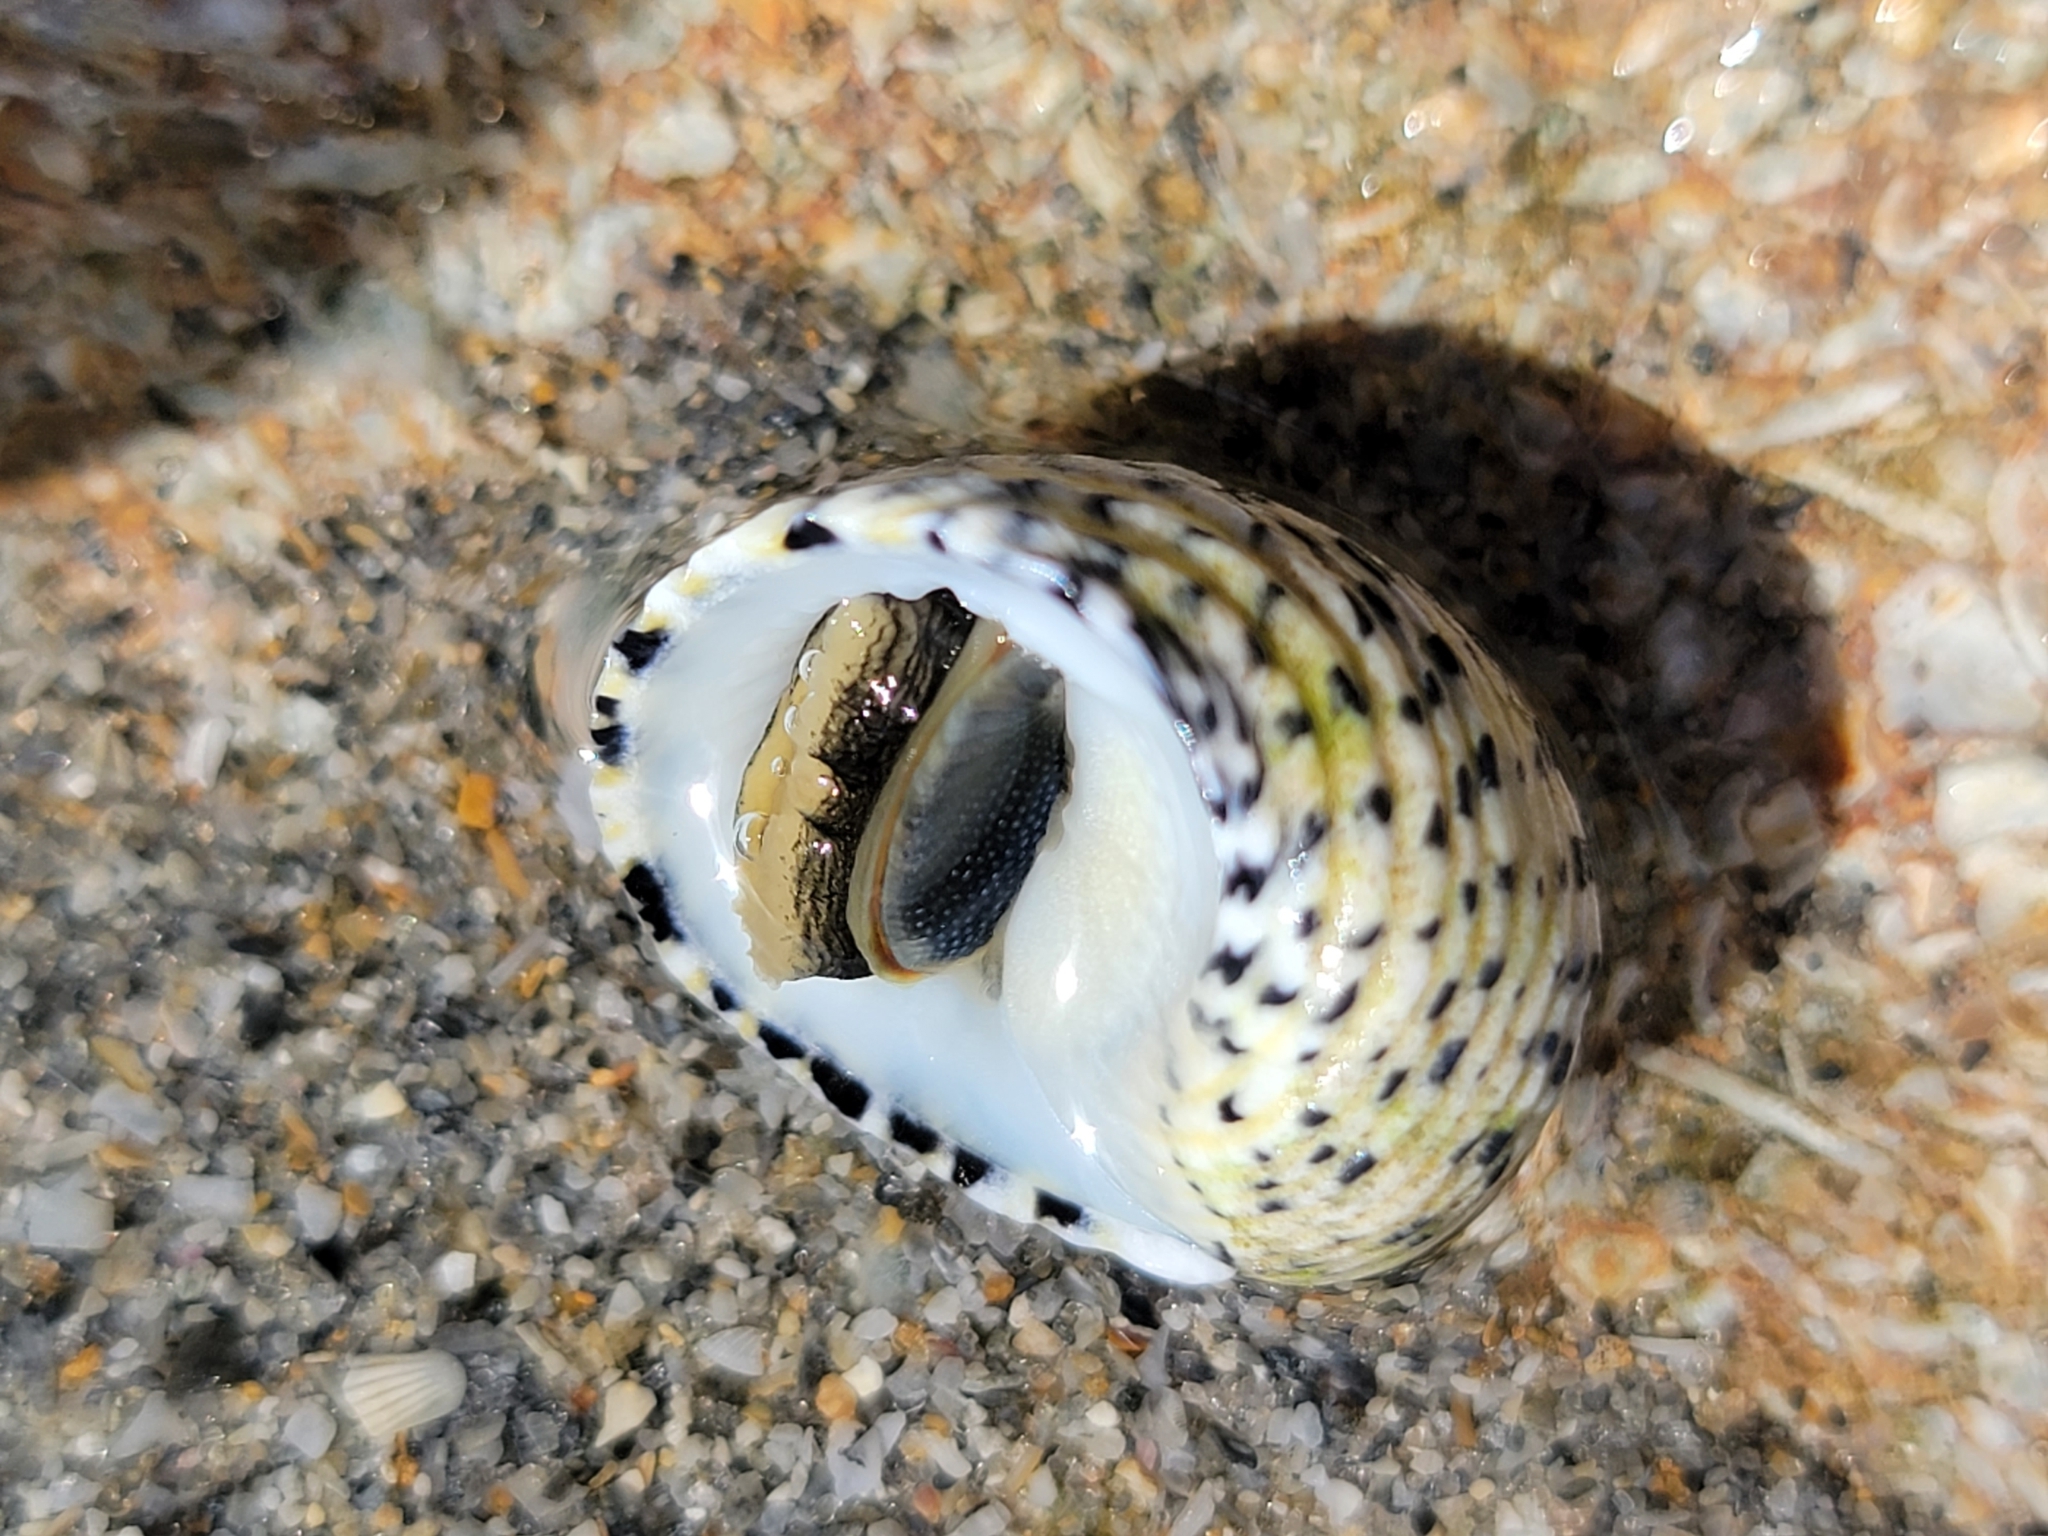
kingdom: Animalia
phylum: Mollusca
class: Gastropoda
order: Cycloneritida
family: Neritidae
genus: Nerita
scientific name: Nerita tessellata
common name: Checkered nerite
